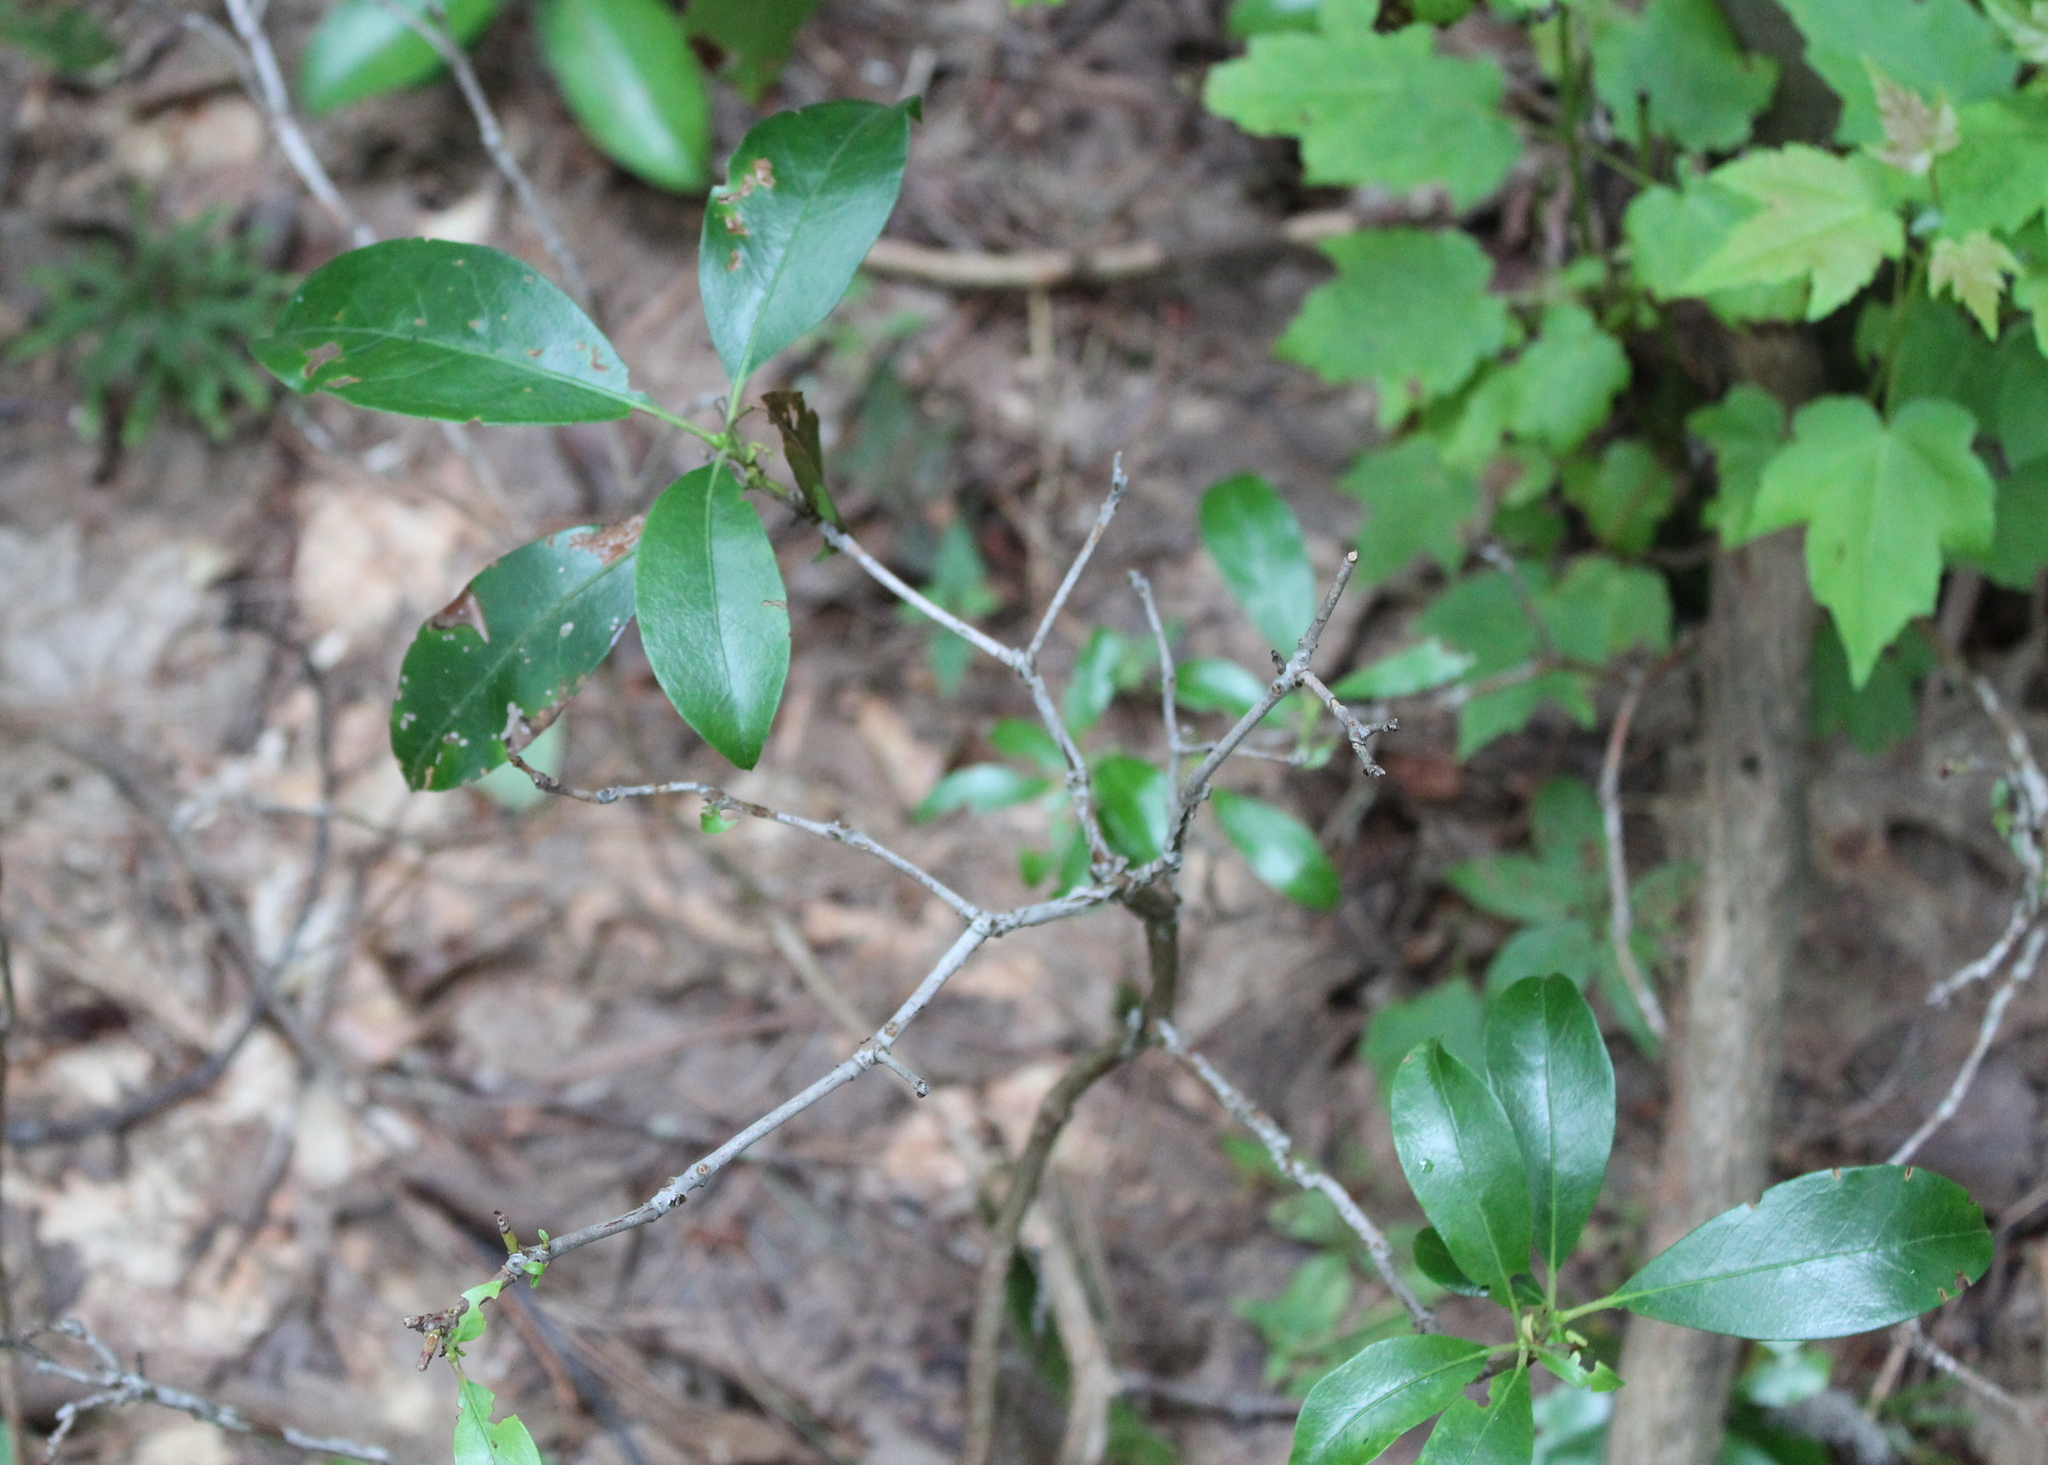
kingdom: Plantae
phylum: Tracheophyta
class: Magnoliopsida
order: Ericales
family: Ericaceae
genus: Kalmia
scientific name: Kalmia latifolia
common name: Mountain-laurel
